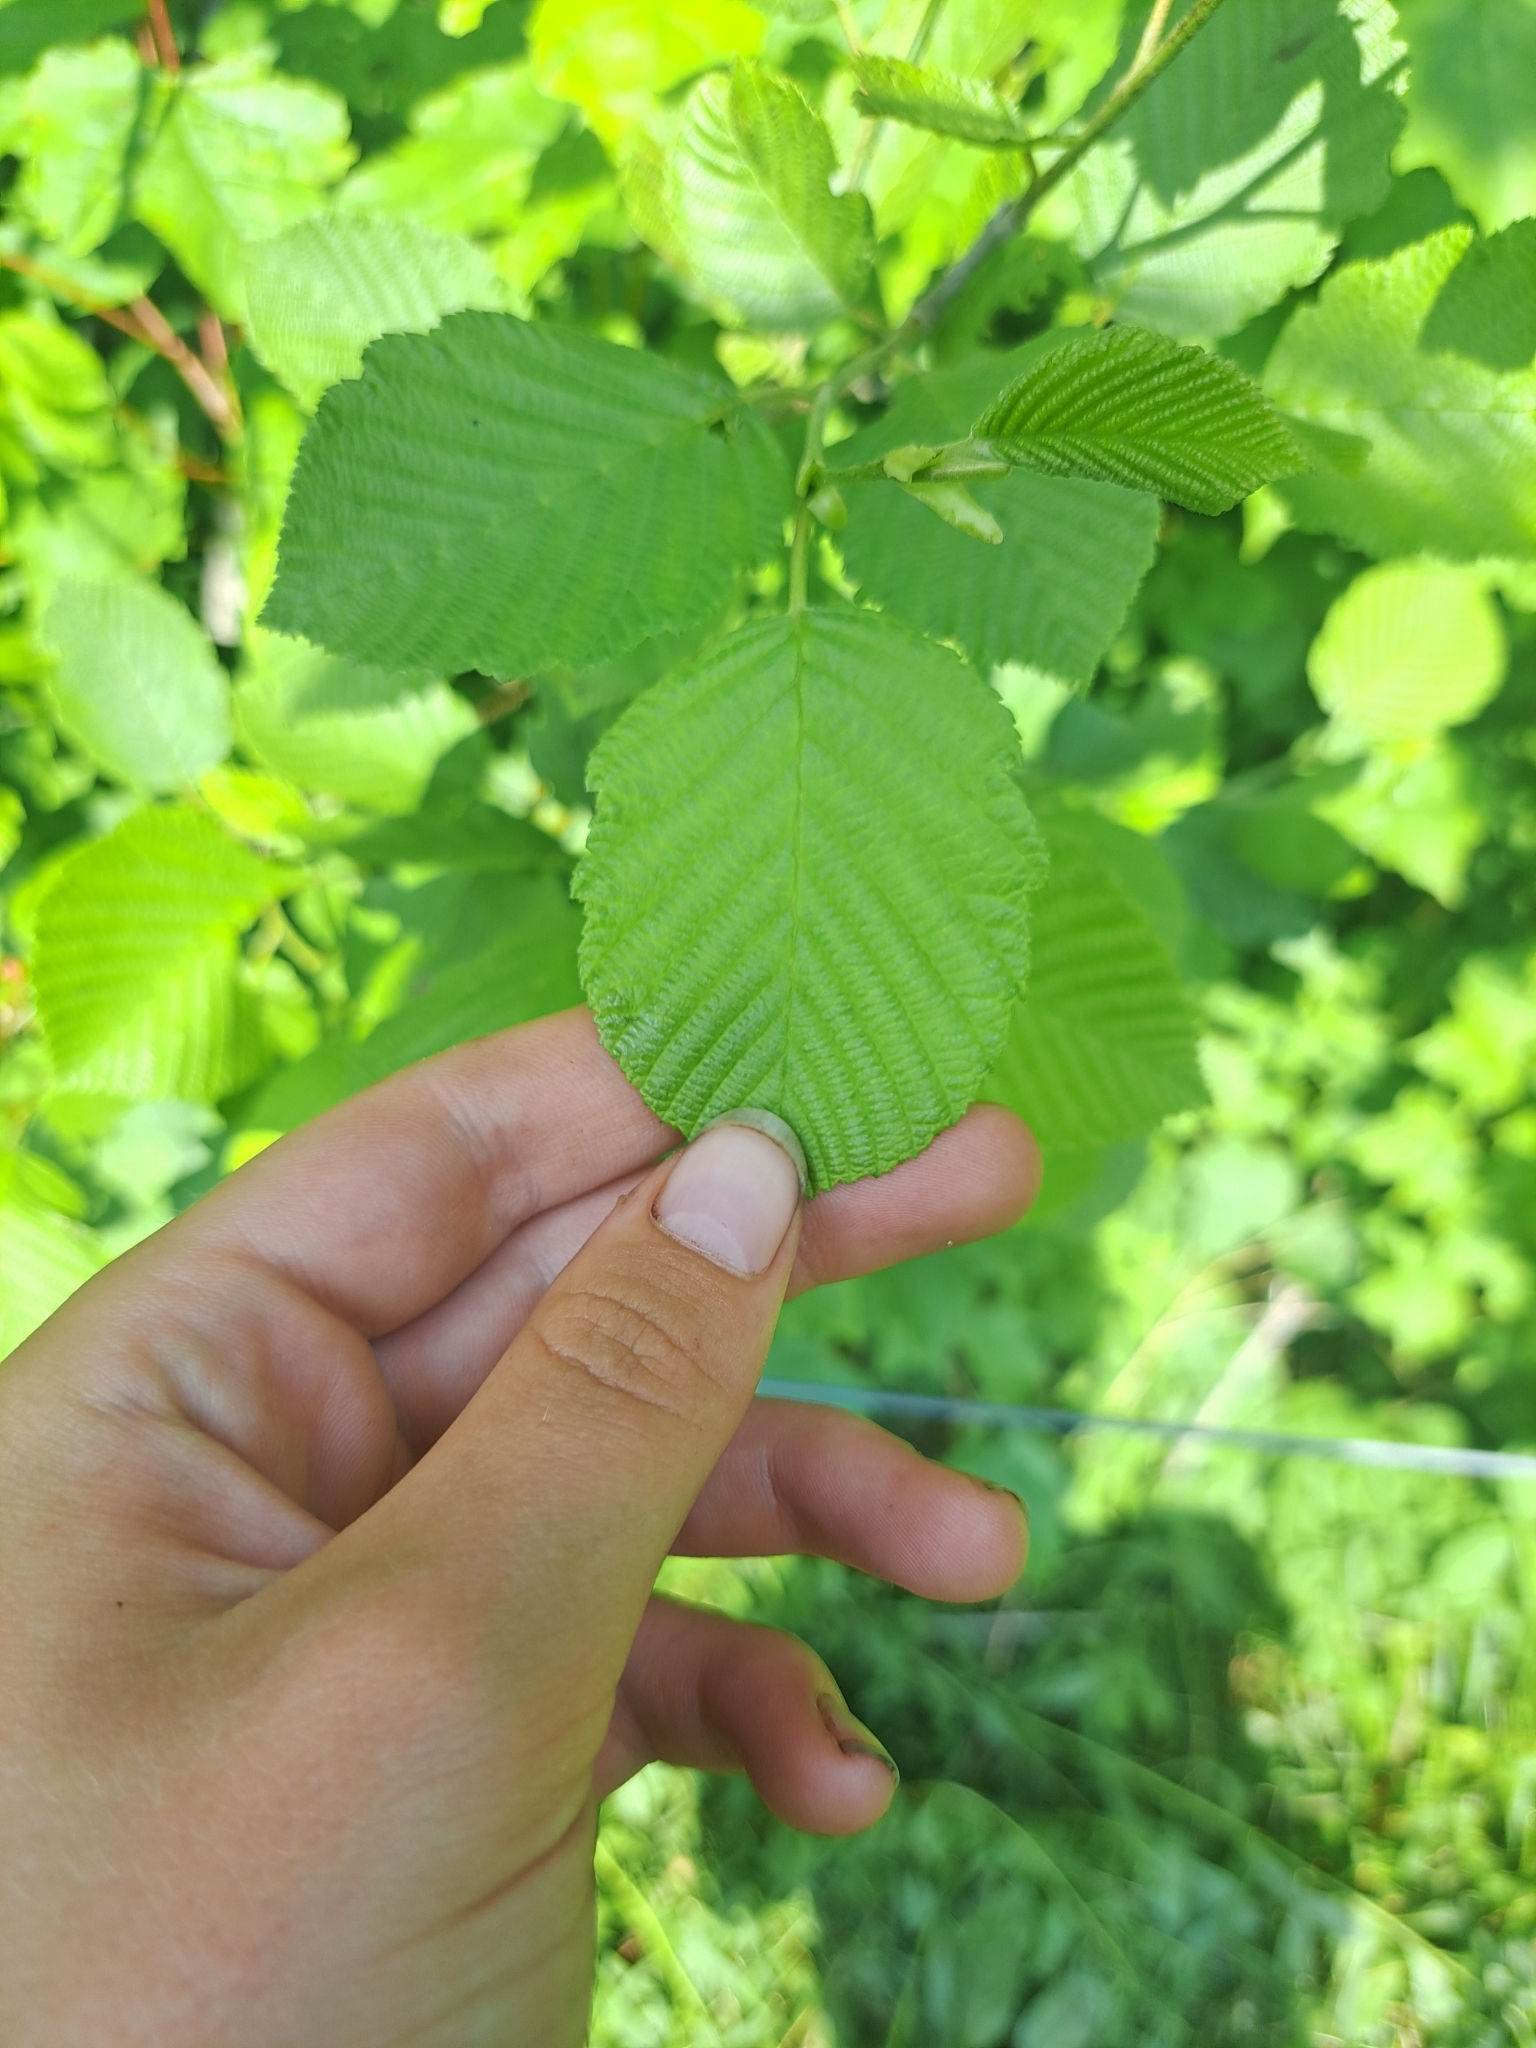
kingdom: Plantae
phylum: Tracheophyta
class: Magnoliopsida
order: Fagales
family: Betulaceae
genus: Alnus
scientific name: Alnus incana
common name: Grey alder
